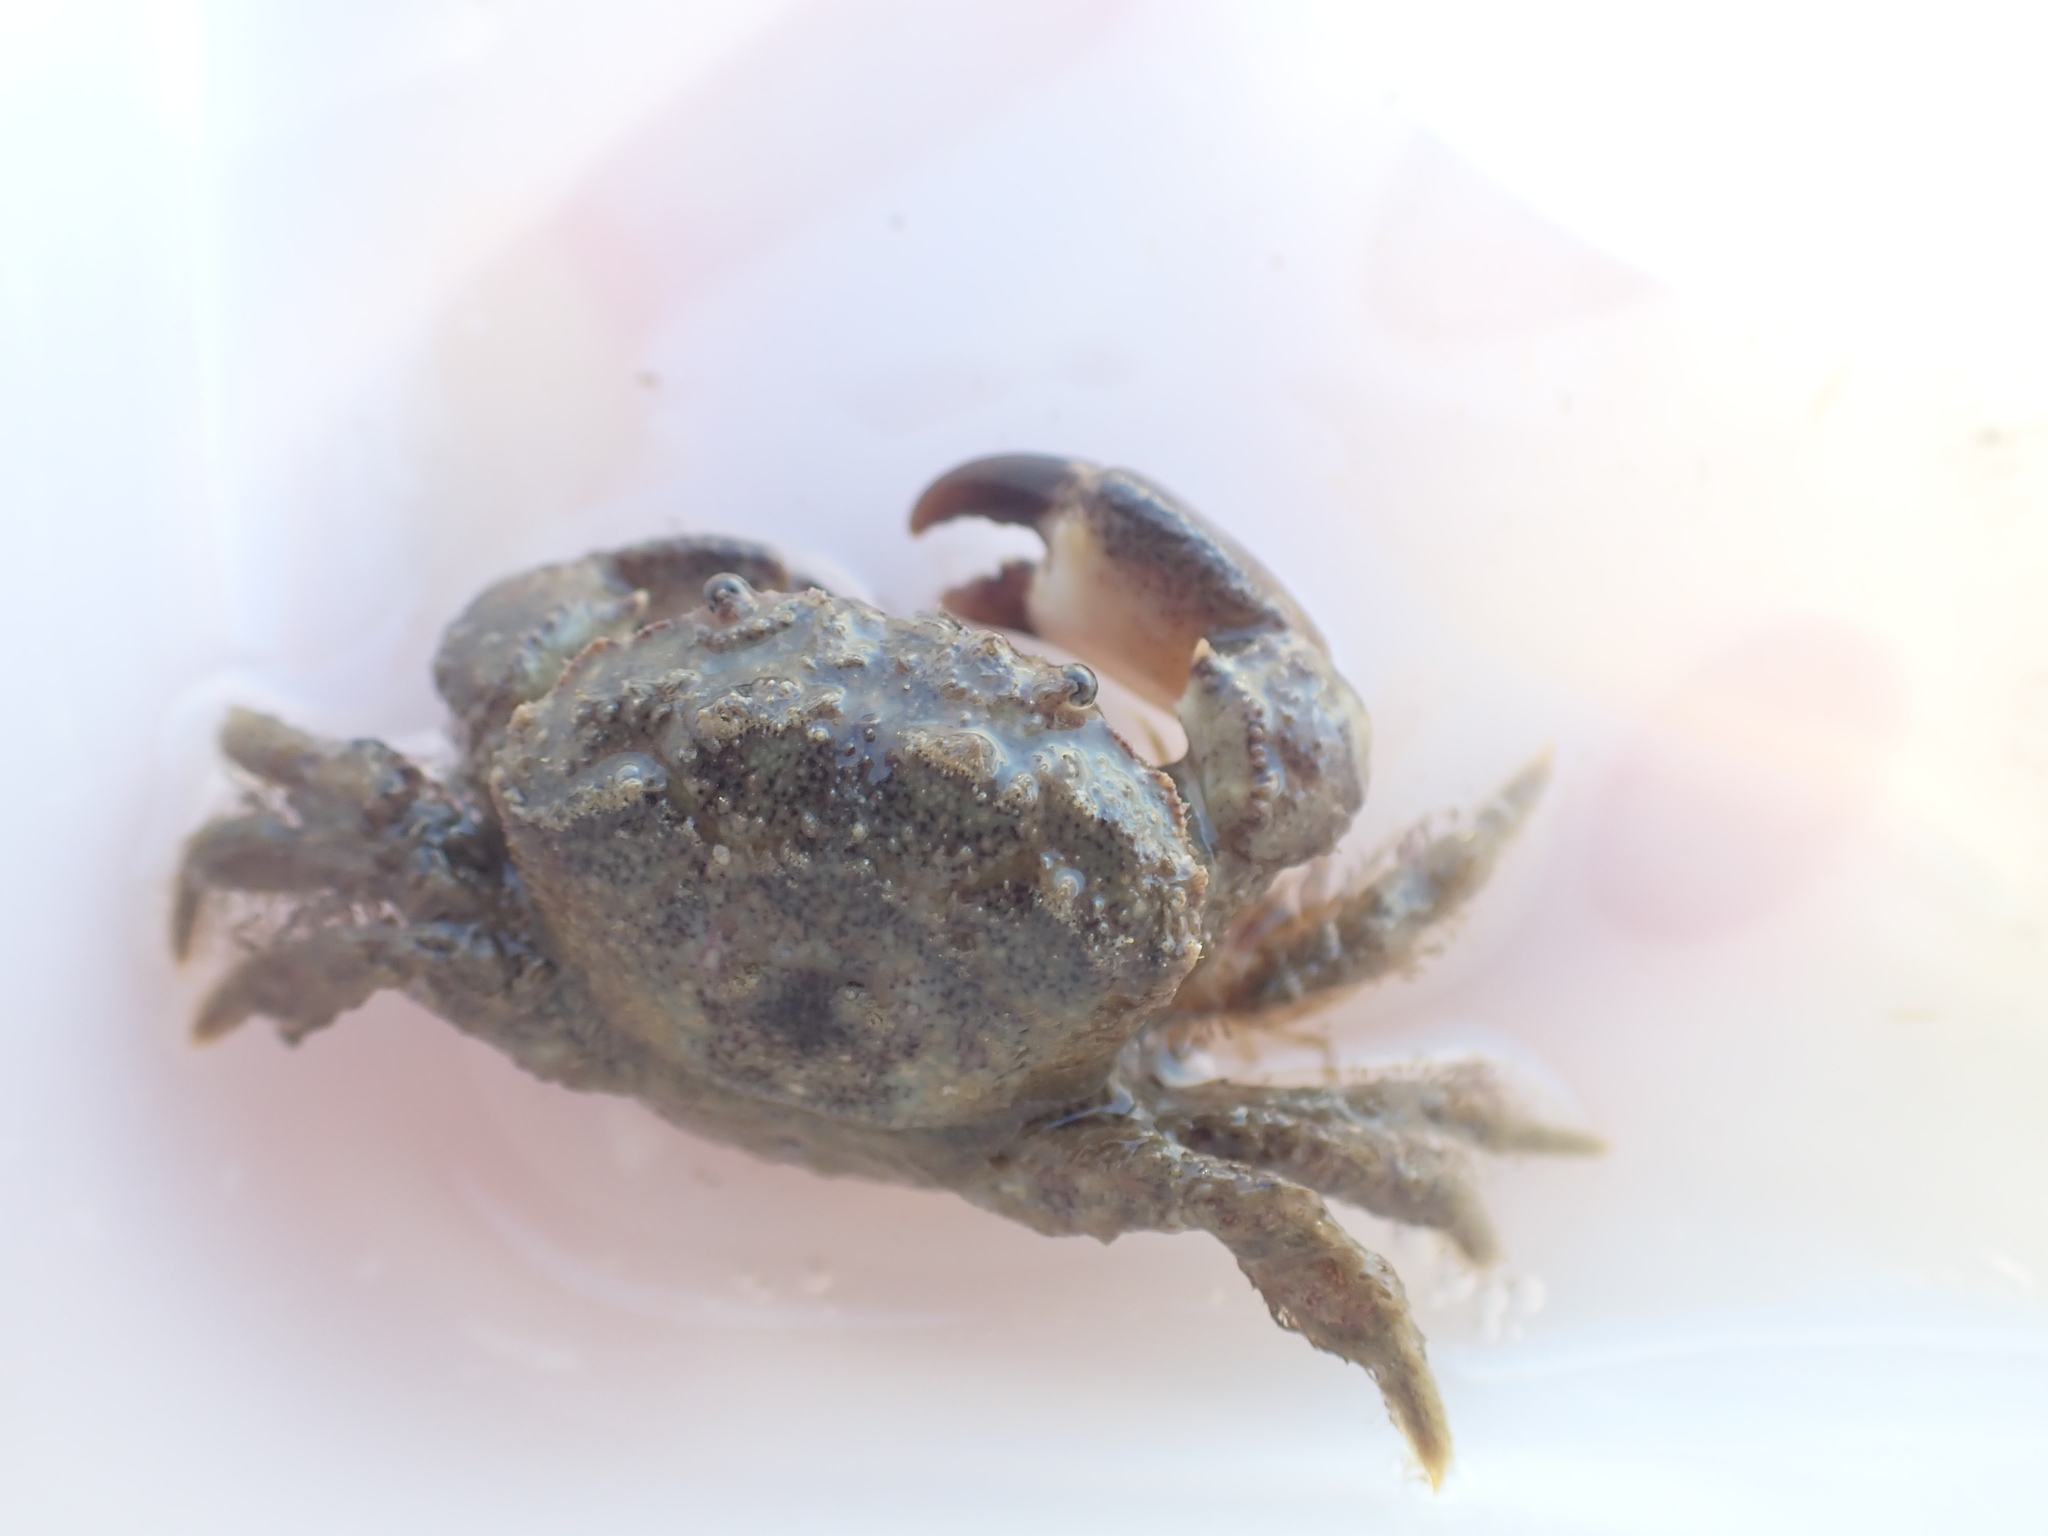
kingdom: Animalia
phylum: Arthropoda
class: Malacostraca
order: Decapoda
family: Pilumnidae
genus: Pilumnopeus
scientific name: Pilumnopeus serratifrons
